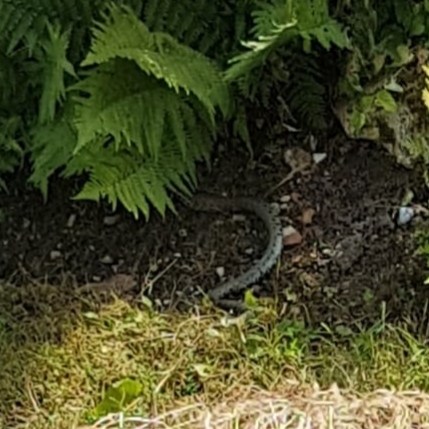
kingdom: Animalia
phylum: Chordata
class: Squamata
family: Colubridae
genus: Natrix
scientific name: Natrix helvetica
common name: Banded grass snake
